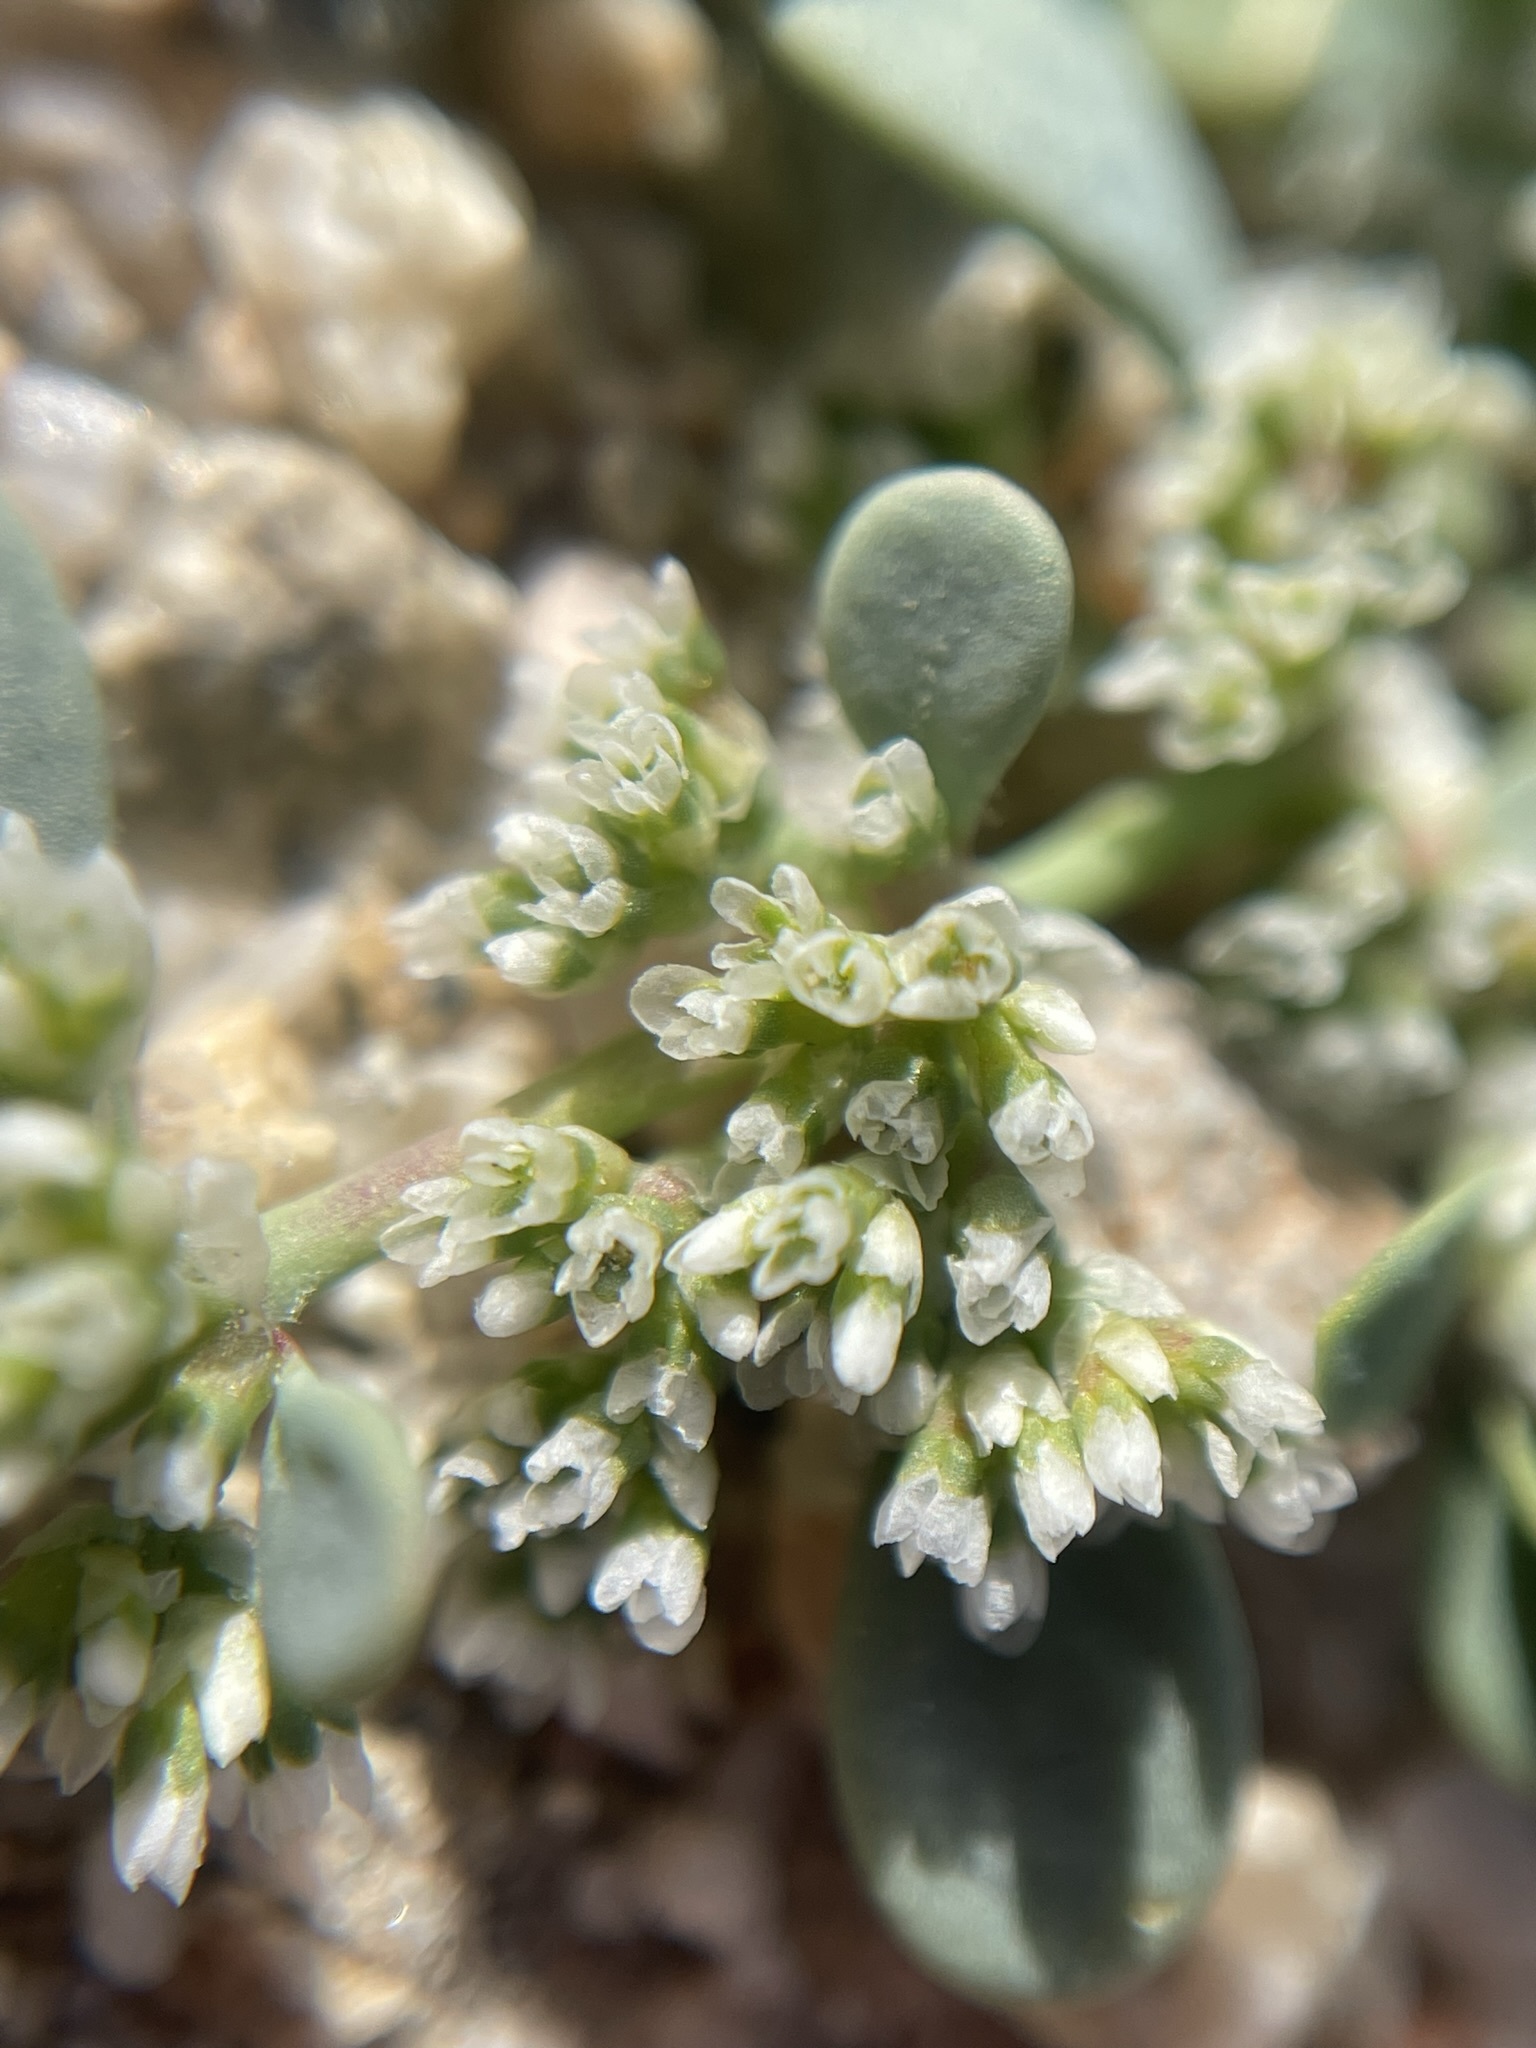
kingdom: Plantae
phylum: Tracheophyta
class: Magnoliopsida
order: Caryophyllales
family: Caryophyllaceae
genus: Achyronychia
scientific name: Achyronychia cooperi
